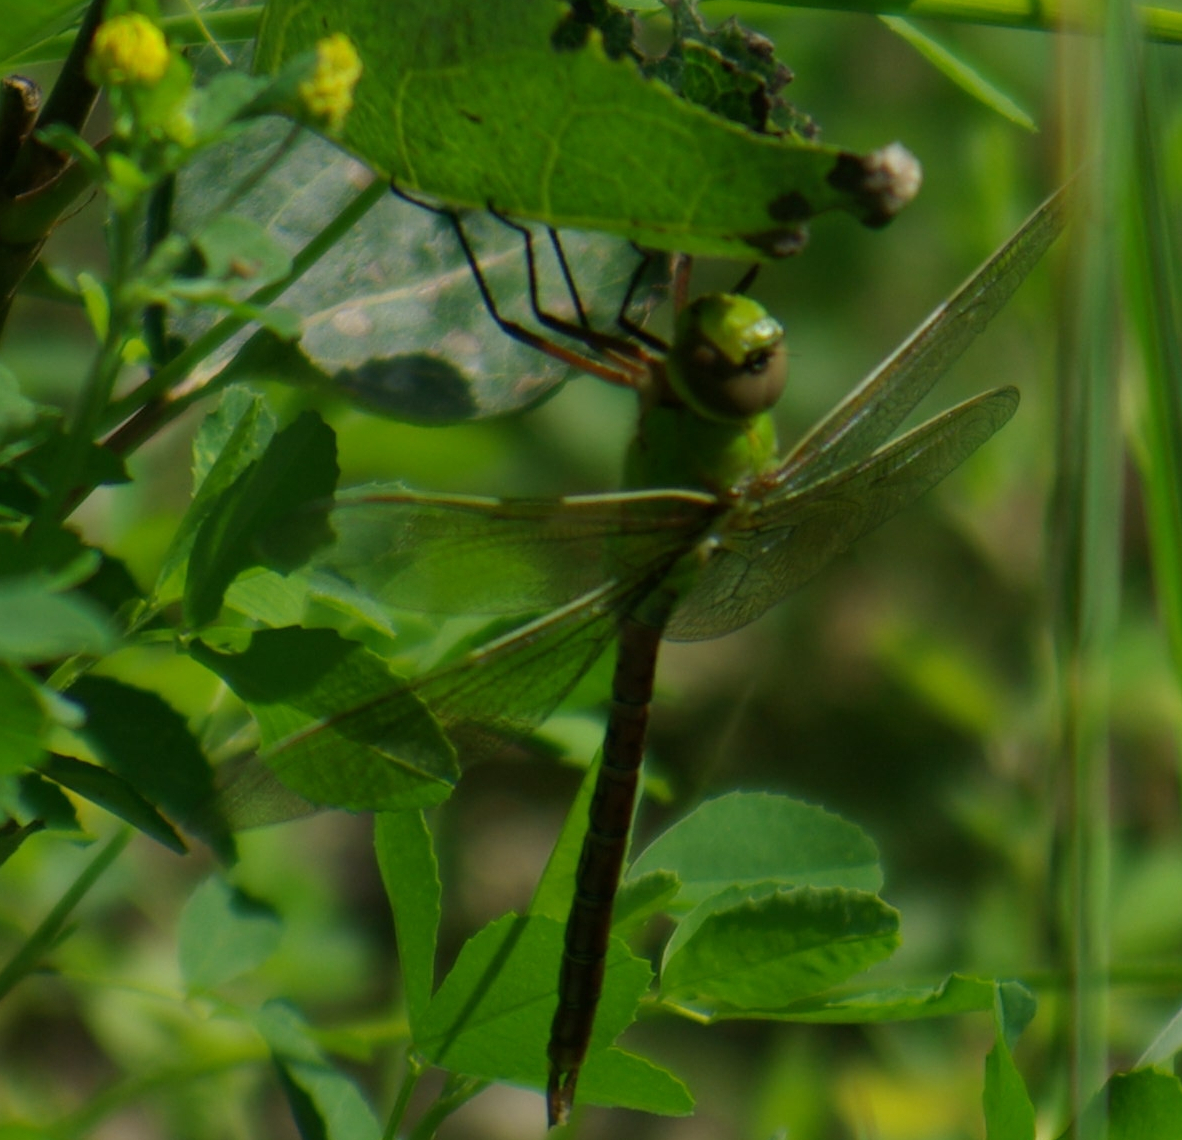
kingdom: Animalia
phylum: Arthropoda
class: Insecta
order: Odonata
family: Aeshnidae
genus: Anax
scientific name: Anax junius
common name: Common green darner
